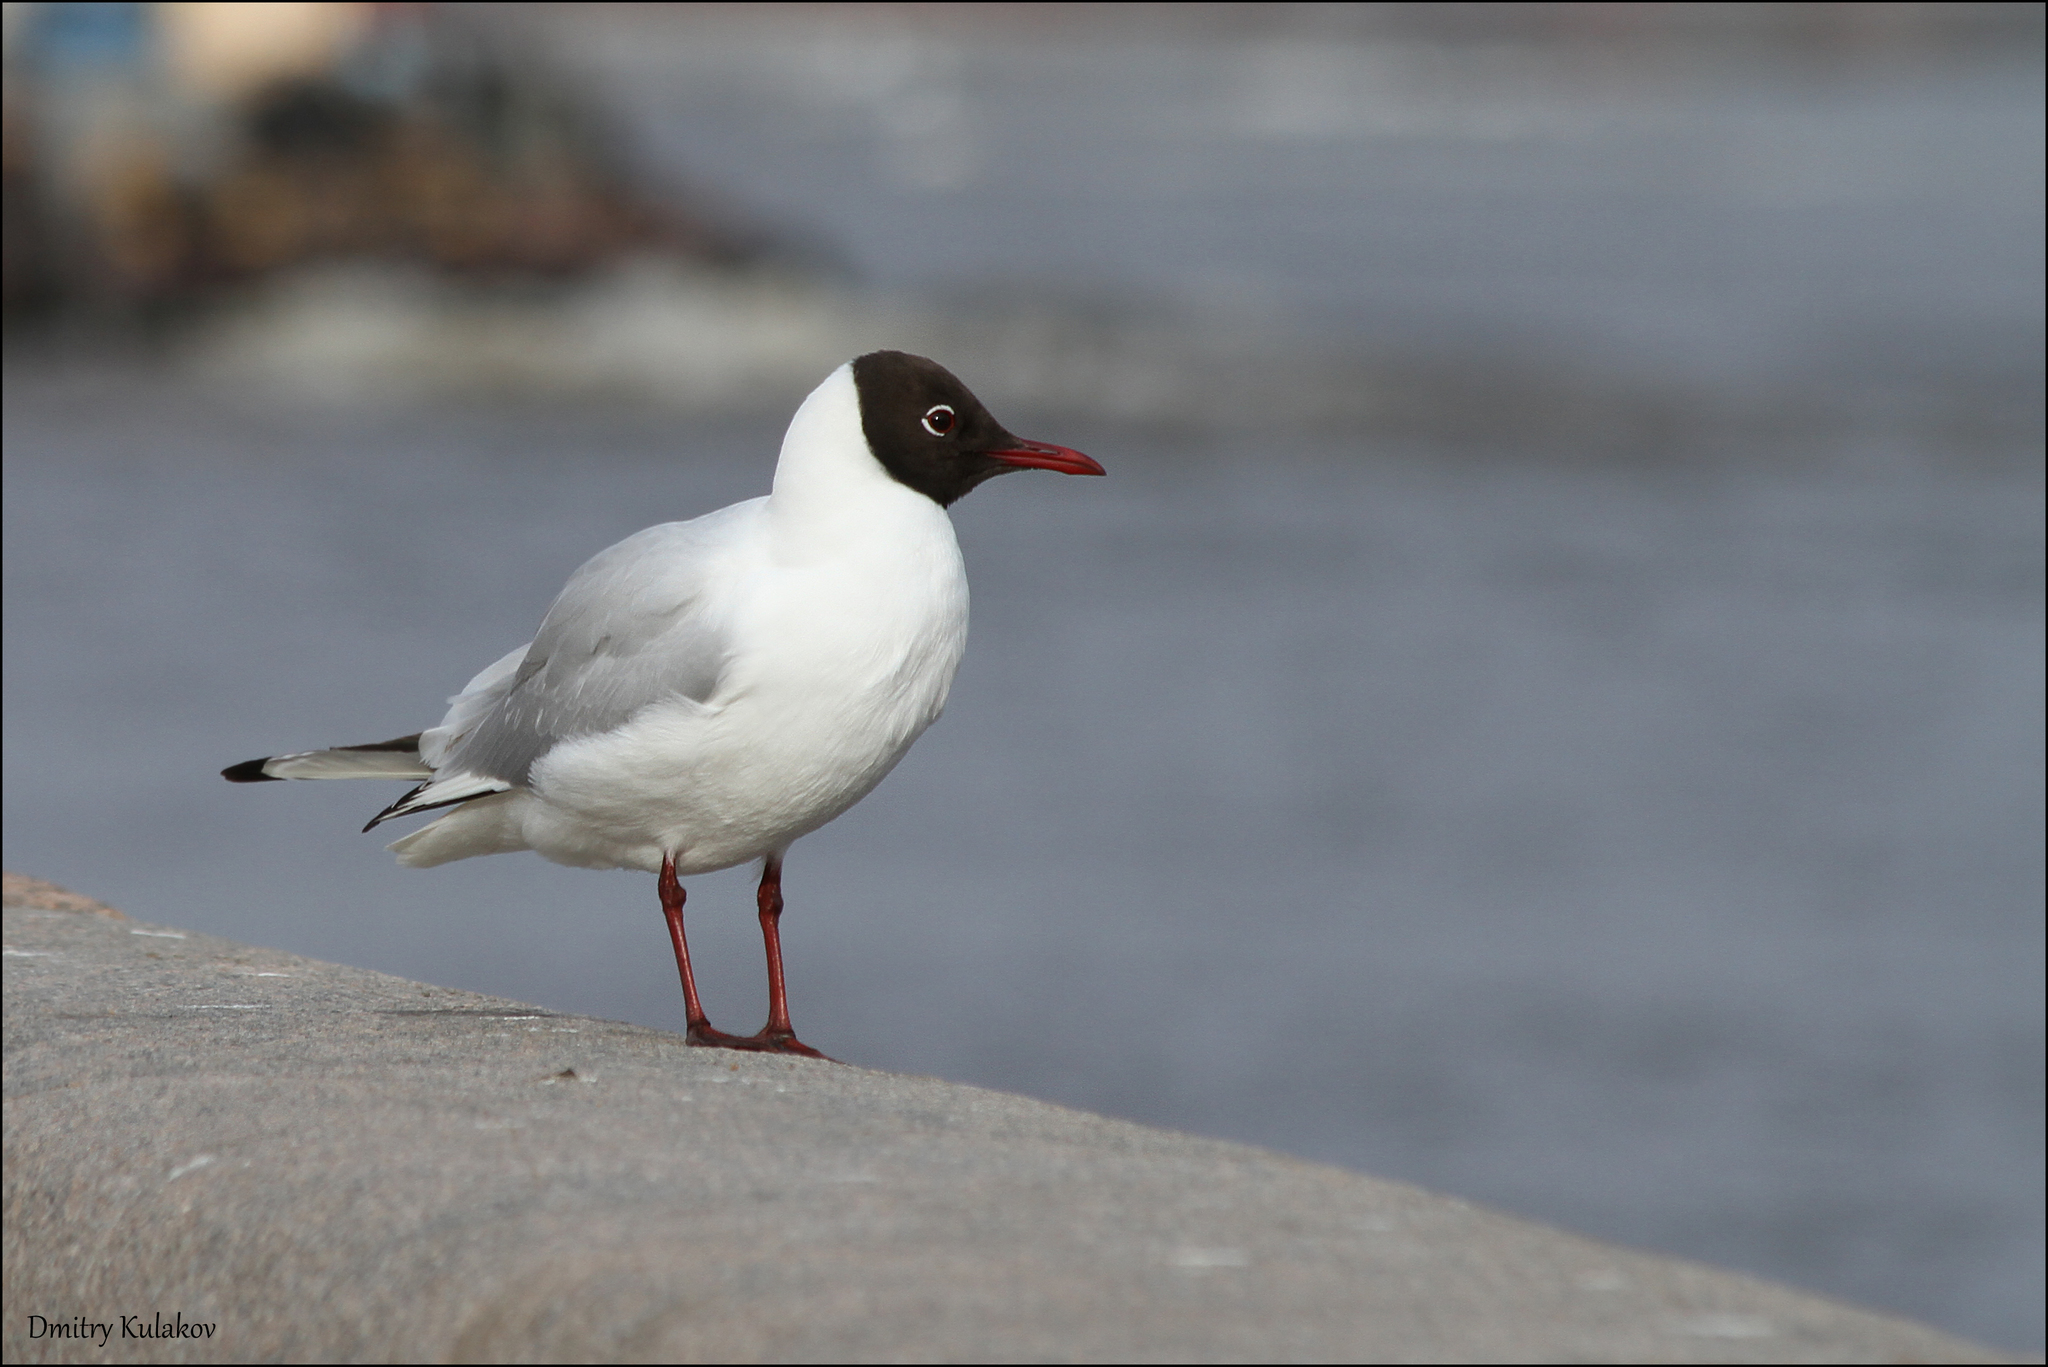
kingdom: Animalia
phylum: Chordata
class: Aves
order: Charadriiformes
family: Laridae
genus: Chroicocephalus
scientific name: Chroicocephalus ridibundus
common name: Black-headed gull
